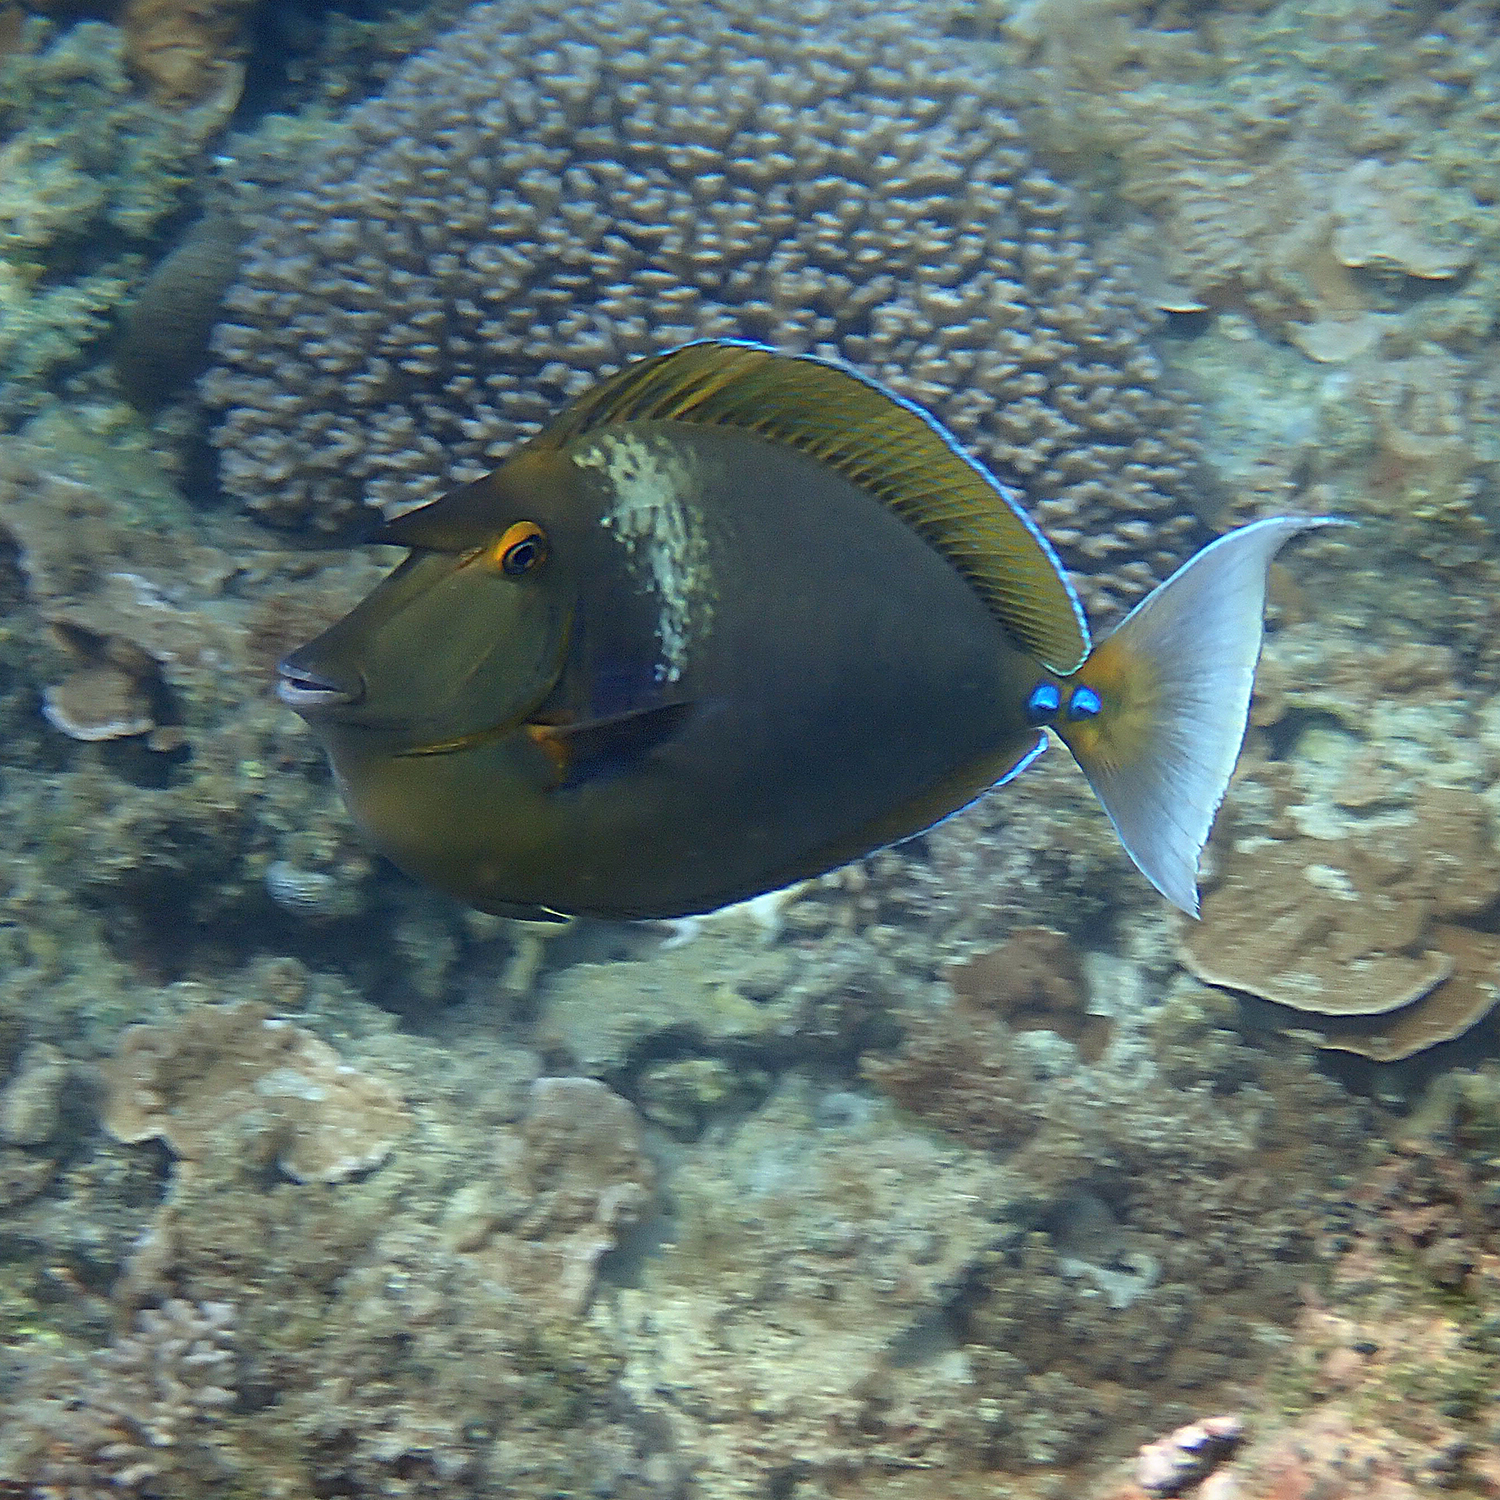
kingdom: Animalia
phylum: Chordata
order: Perciformes
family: Acanthuridae
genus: Naso
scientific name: Naso unicornis
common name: Bluespine unicornfish
